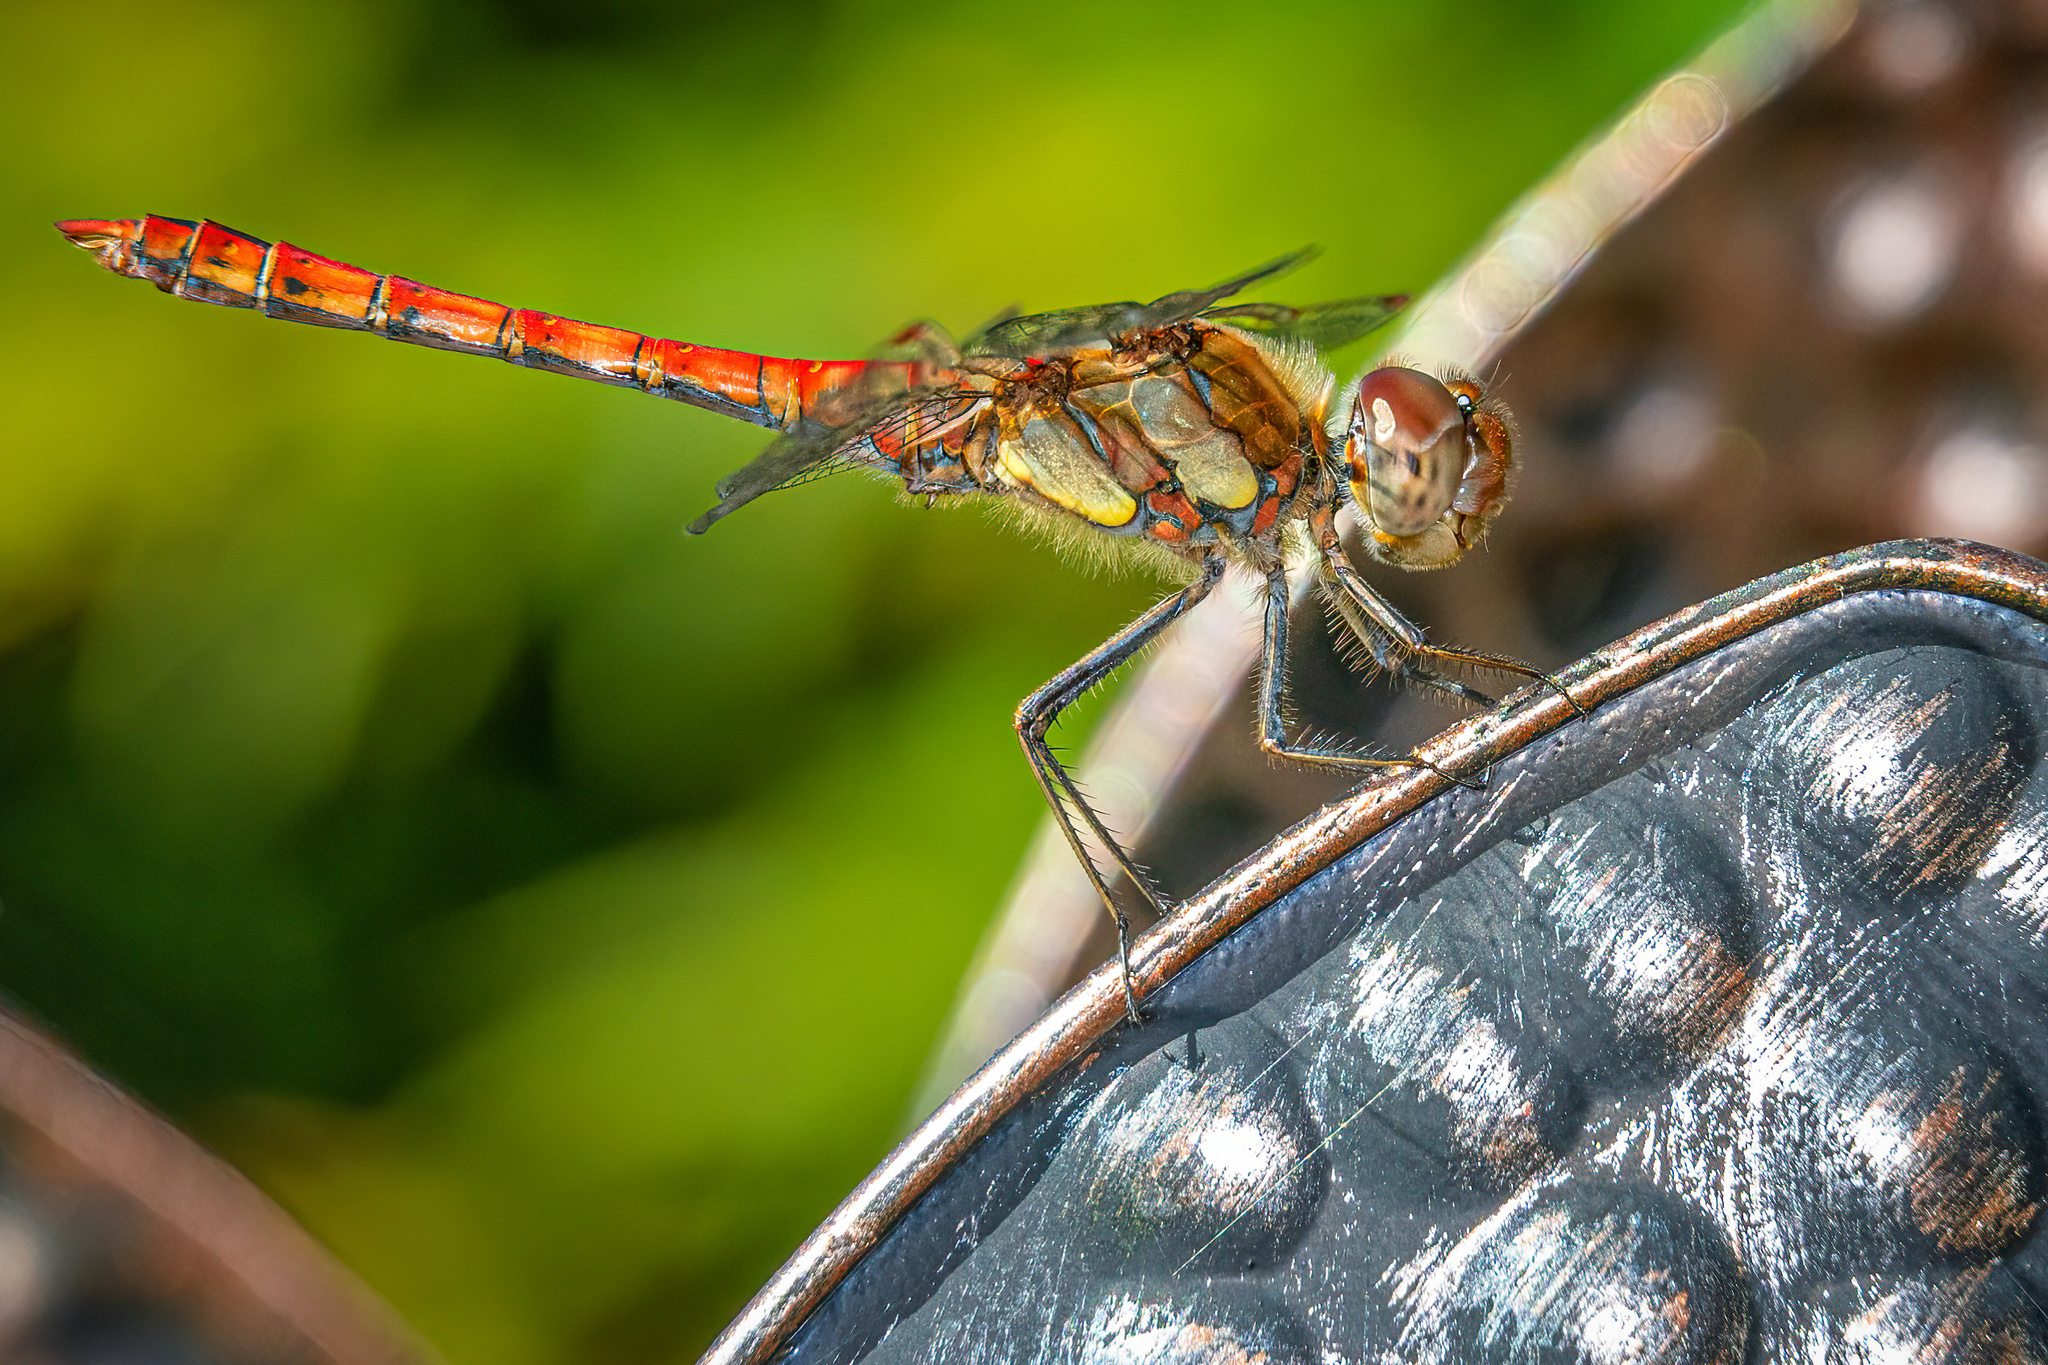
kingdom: Animalia
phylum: Arthropoda
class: Insecta
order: Odonata
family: Libellulidae
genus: Sympetrum
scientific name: Sympetrum striolatum
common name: Common darter
